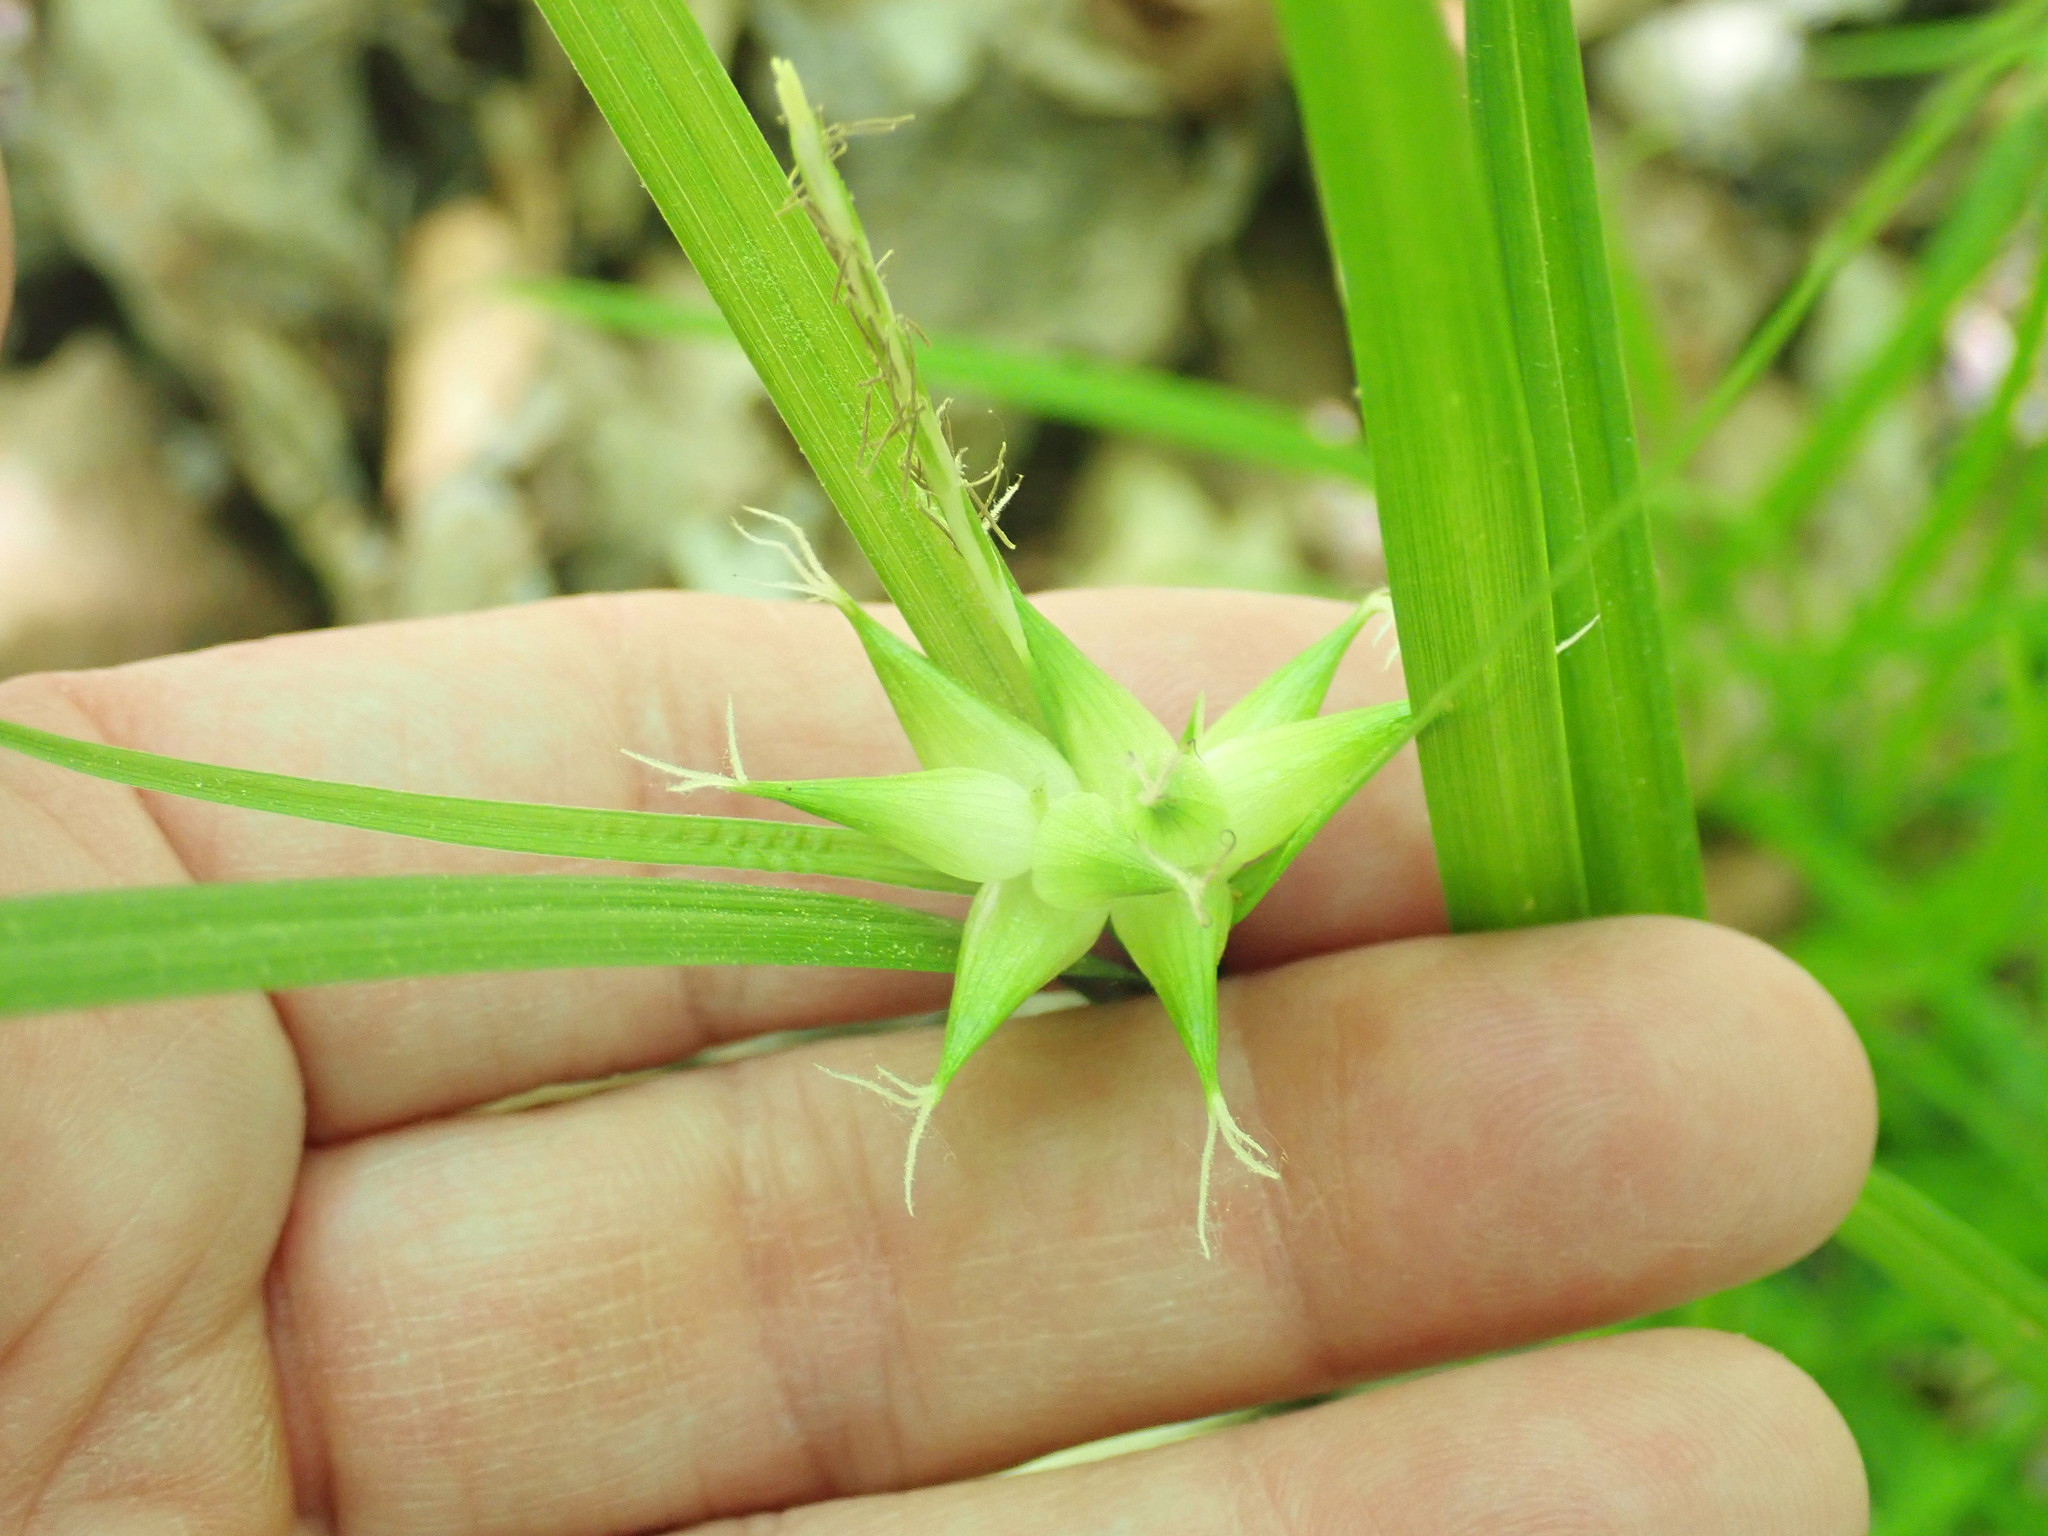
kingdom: Plantae
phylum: Tracheophyta
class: Liliopsida
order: Poales
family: Cyperaceae
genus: Carex
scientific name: Carex intumescens
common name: Greater bladder sedge
